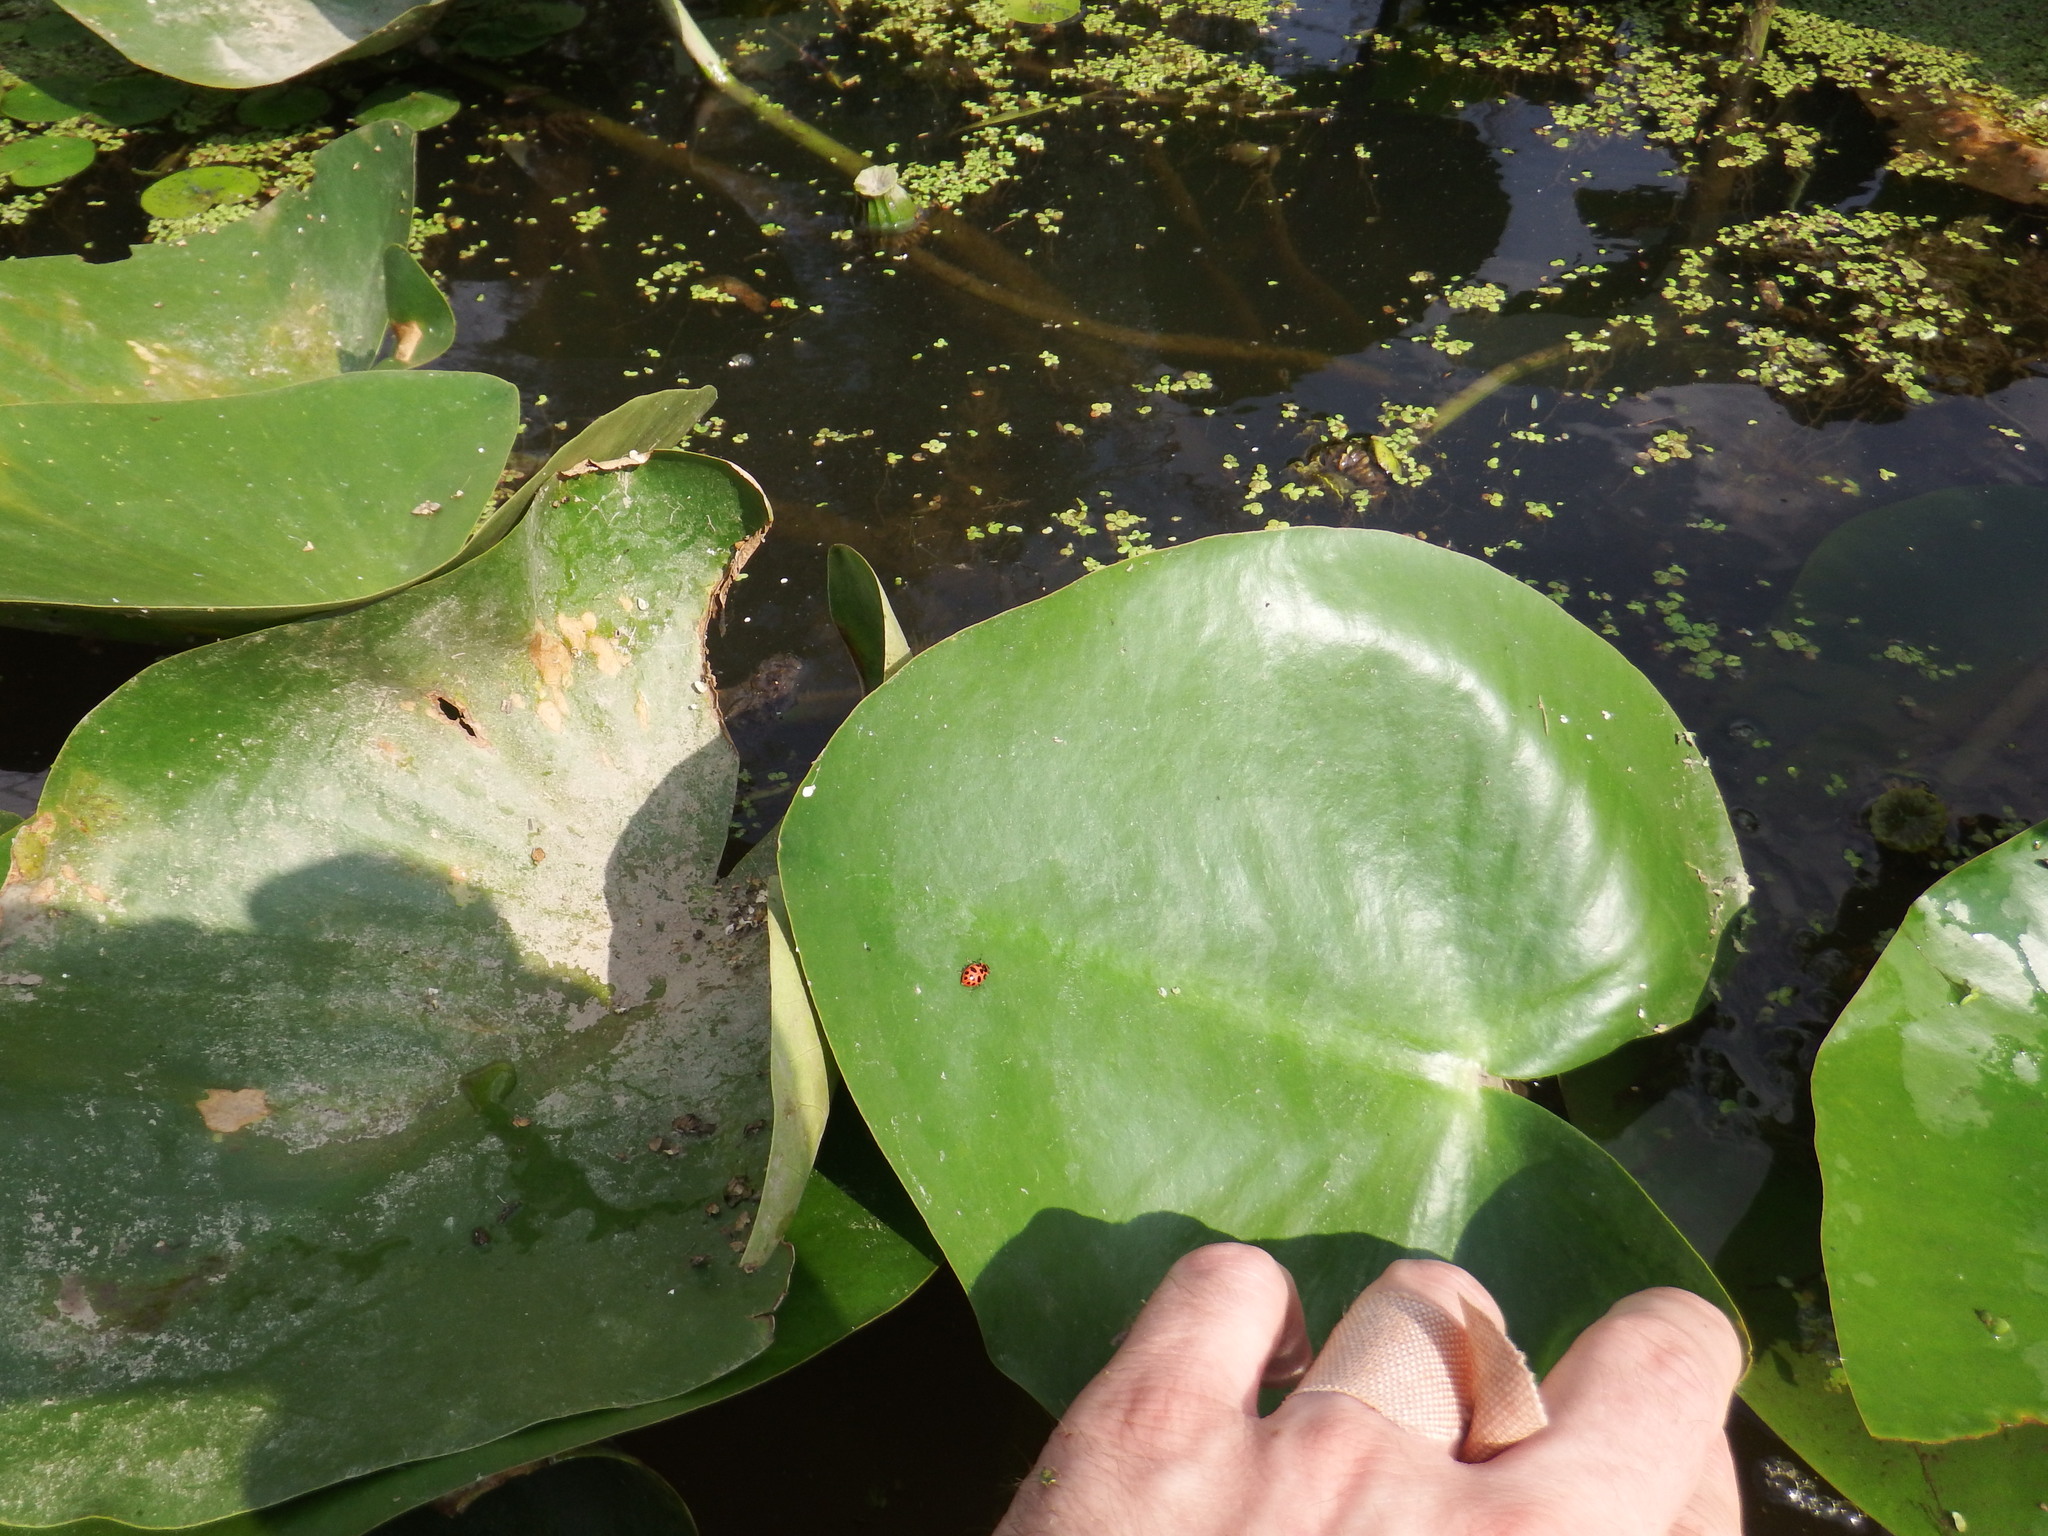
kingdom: Animalia
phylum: Arthropoda
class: Insecta
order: Coleoptera
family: Coccinellidae
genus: Coleomegilla
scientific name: Coleomegilla maculata
